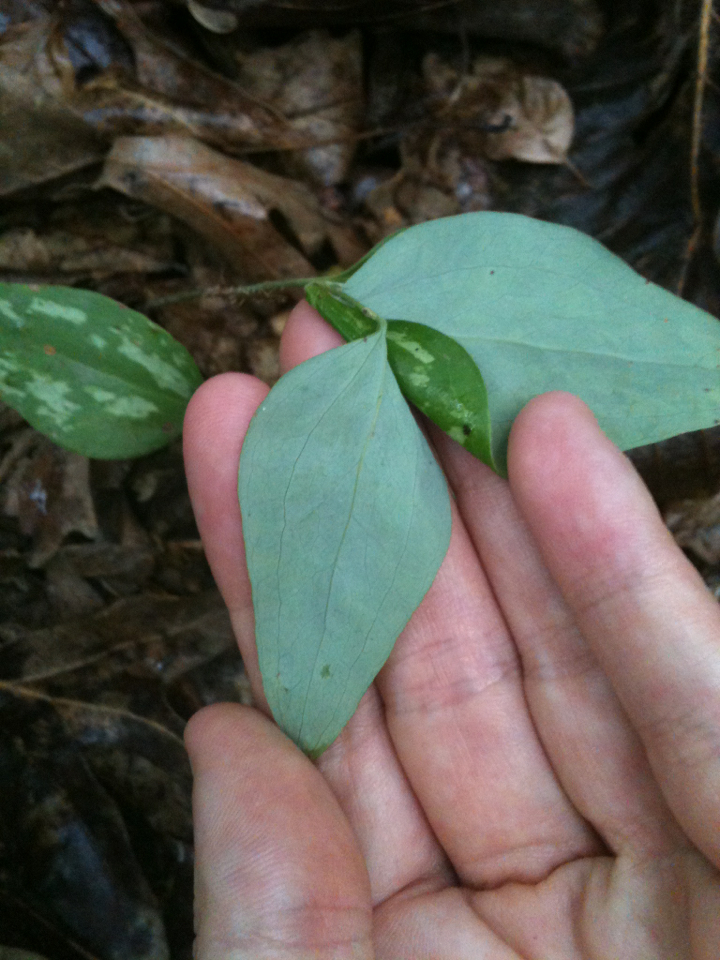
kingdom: Plantae
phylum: Tracheophyta
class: Liliopsida
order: Liliales
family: Smilacaceae
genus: Smilax
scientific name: Smilax glauca
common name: Cat greenbrier
